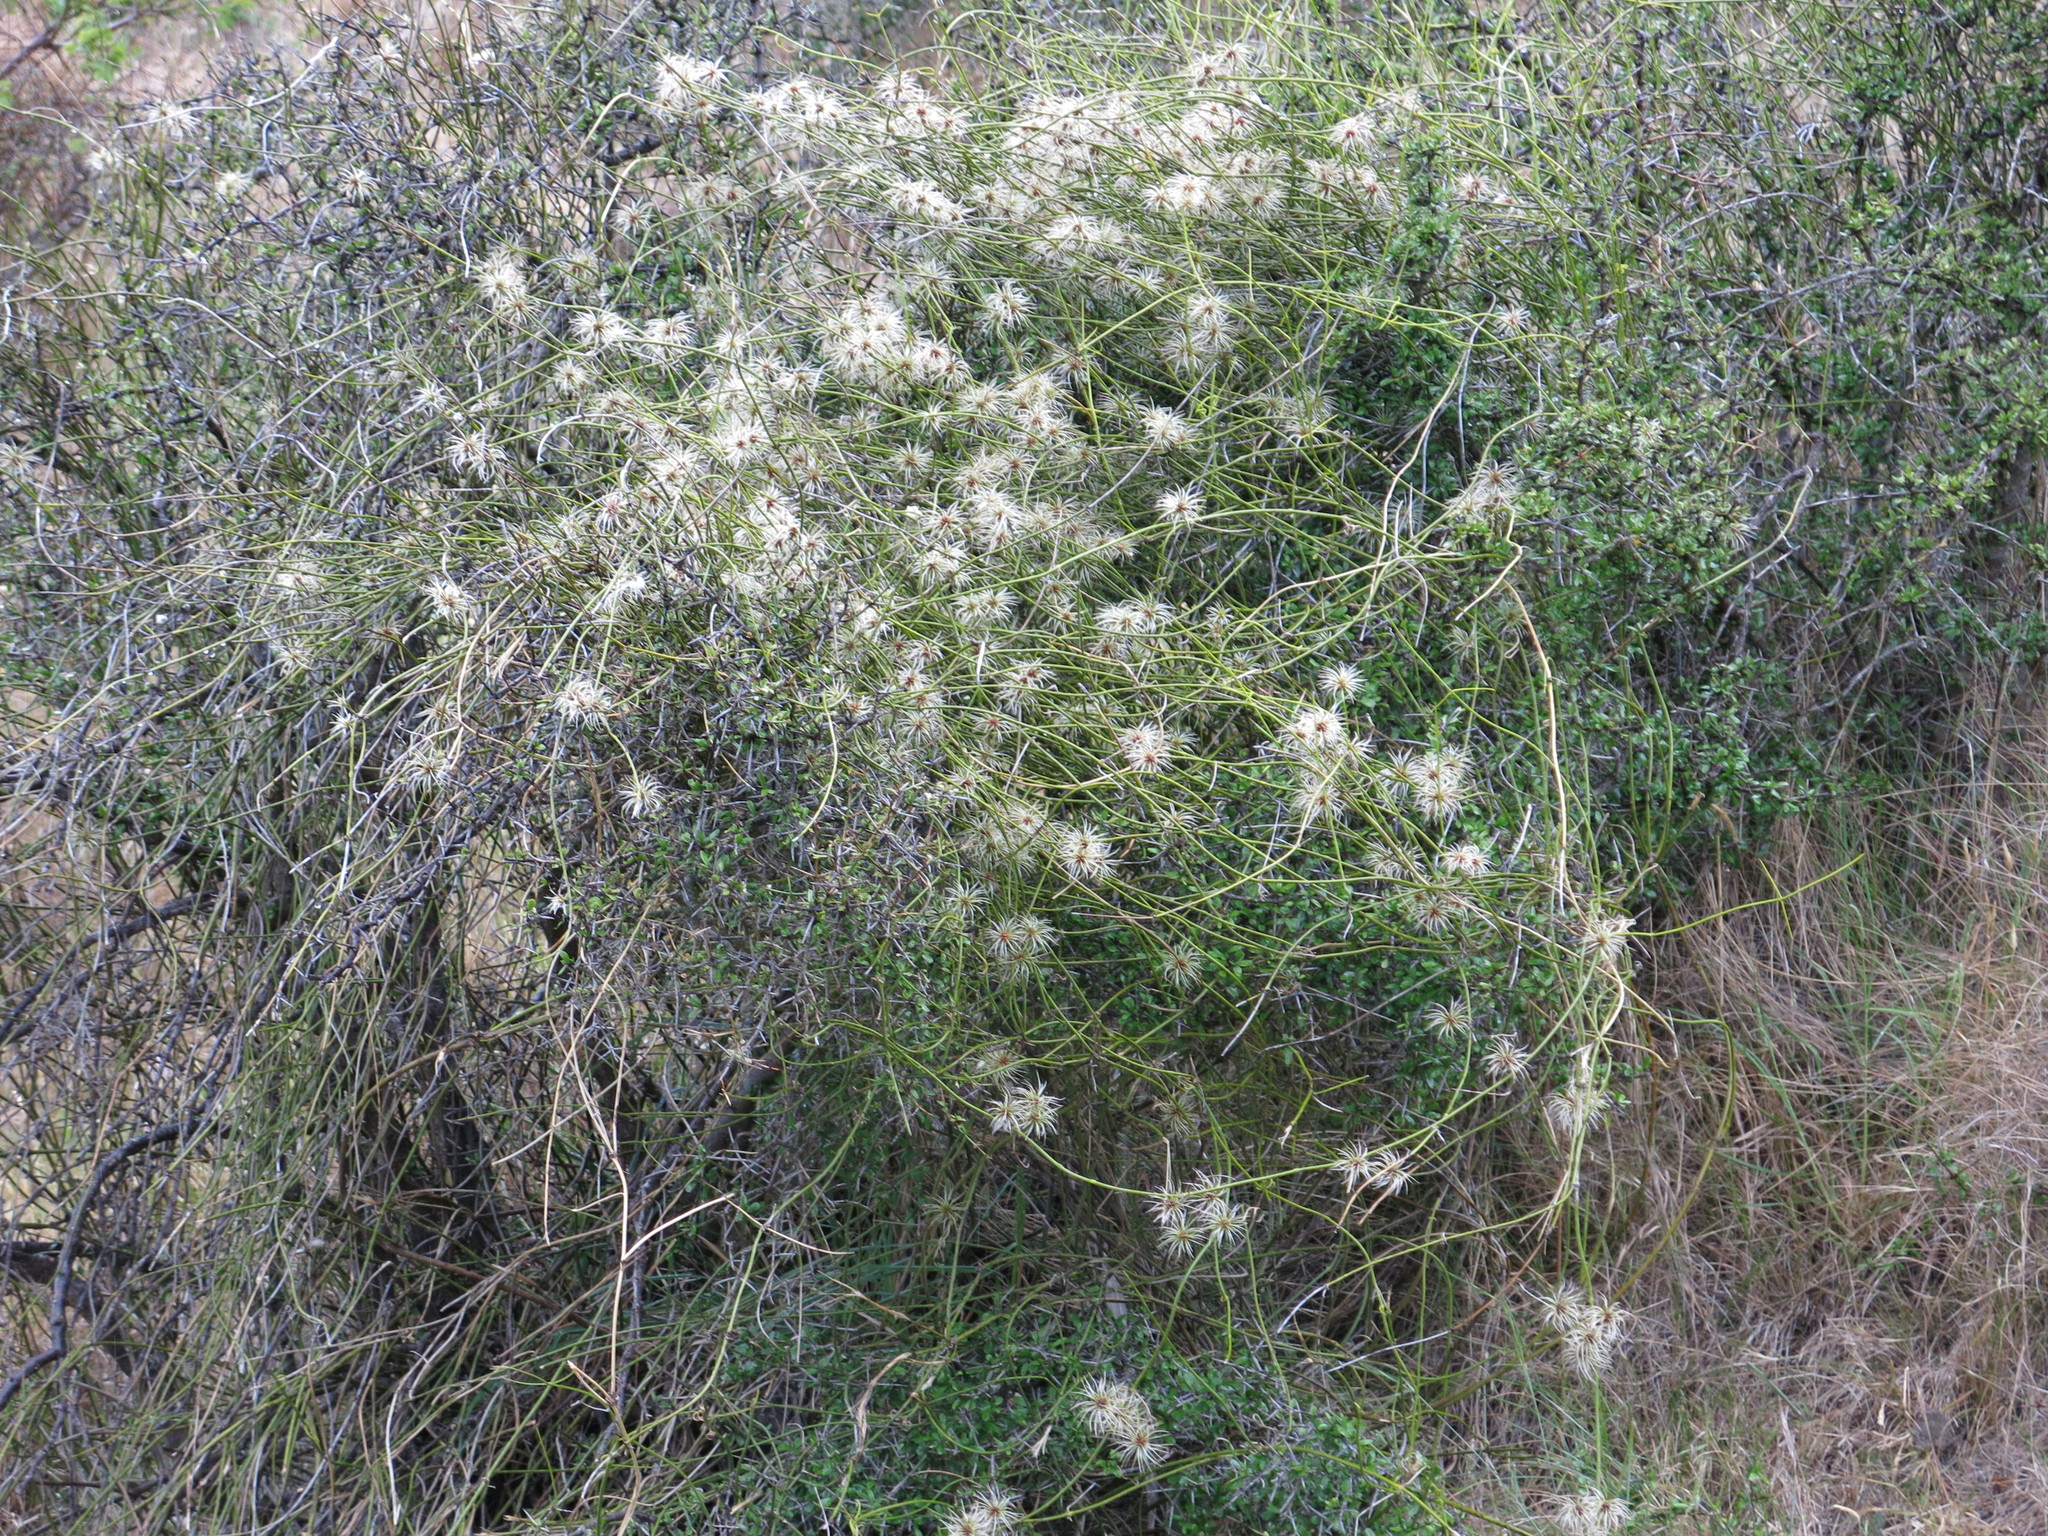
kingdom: Plantae
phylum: Tracheophyta
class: Magnoliopsida
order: Ranunculales
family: Ranunculaceae
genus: Clematis
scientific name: Clematis afoliata
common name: Rush-stem clematis
